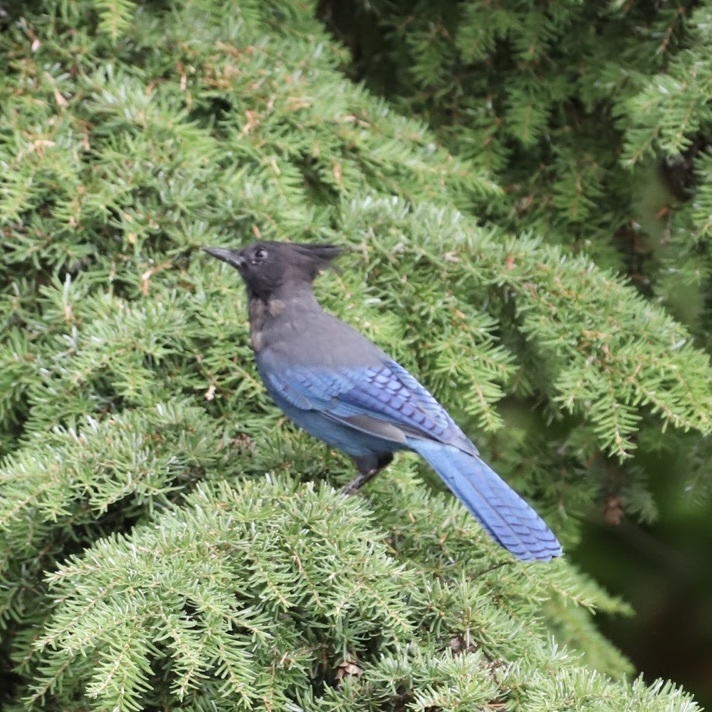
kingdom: Animalia
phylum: Chordata
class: Aves
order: Passeriformes
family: Corvidae
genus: Cyanocitta
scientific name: Cyanocitta stelleri
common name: Steller's jay
